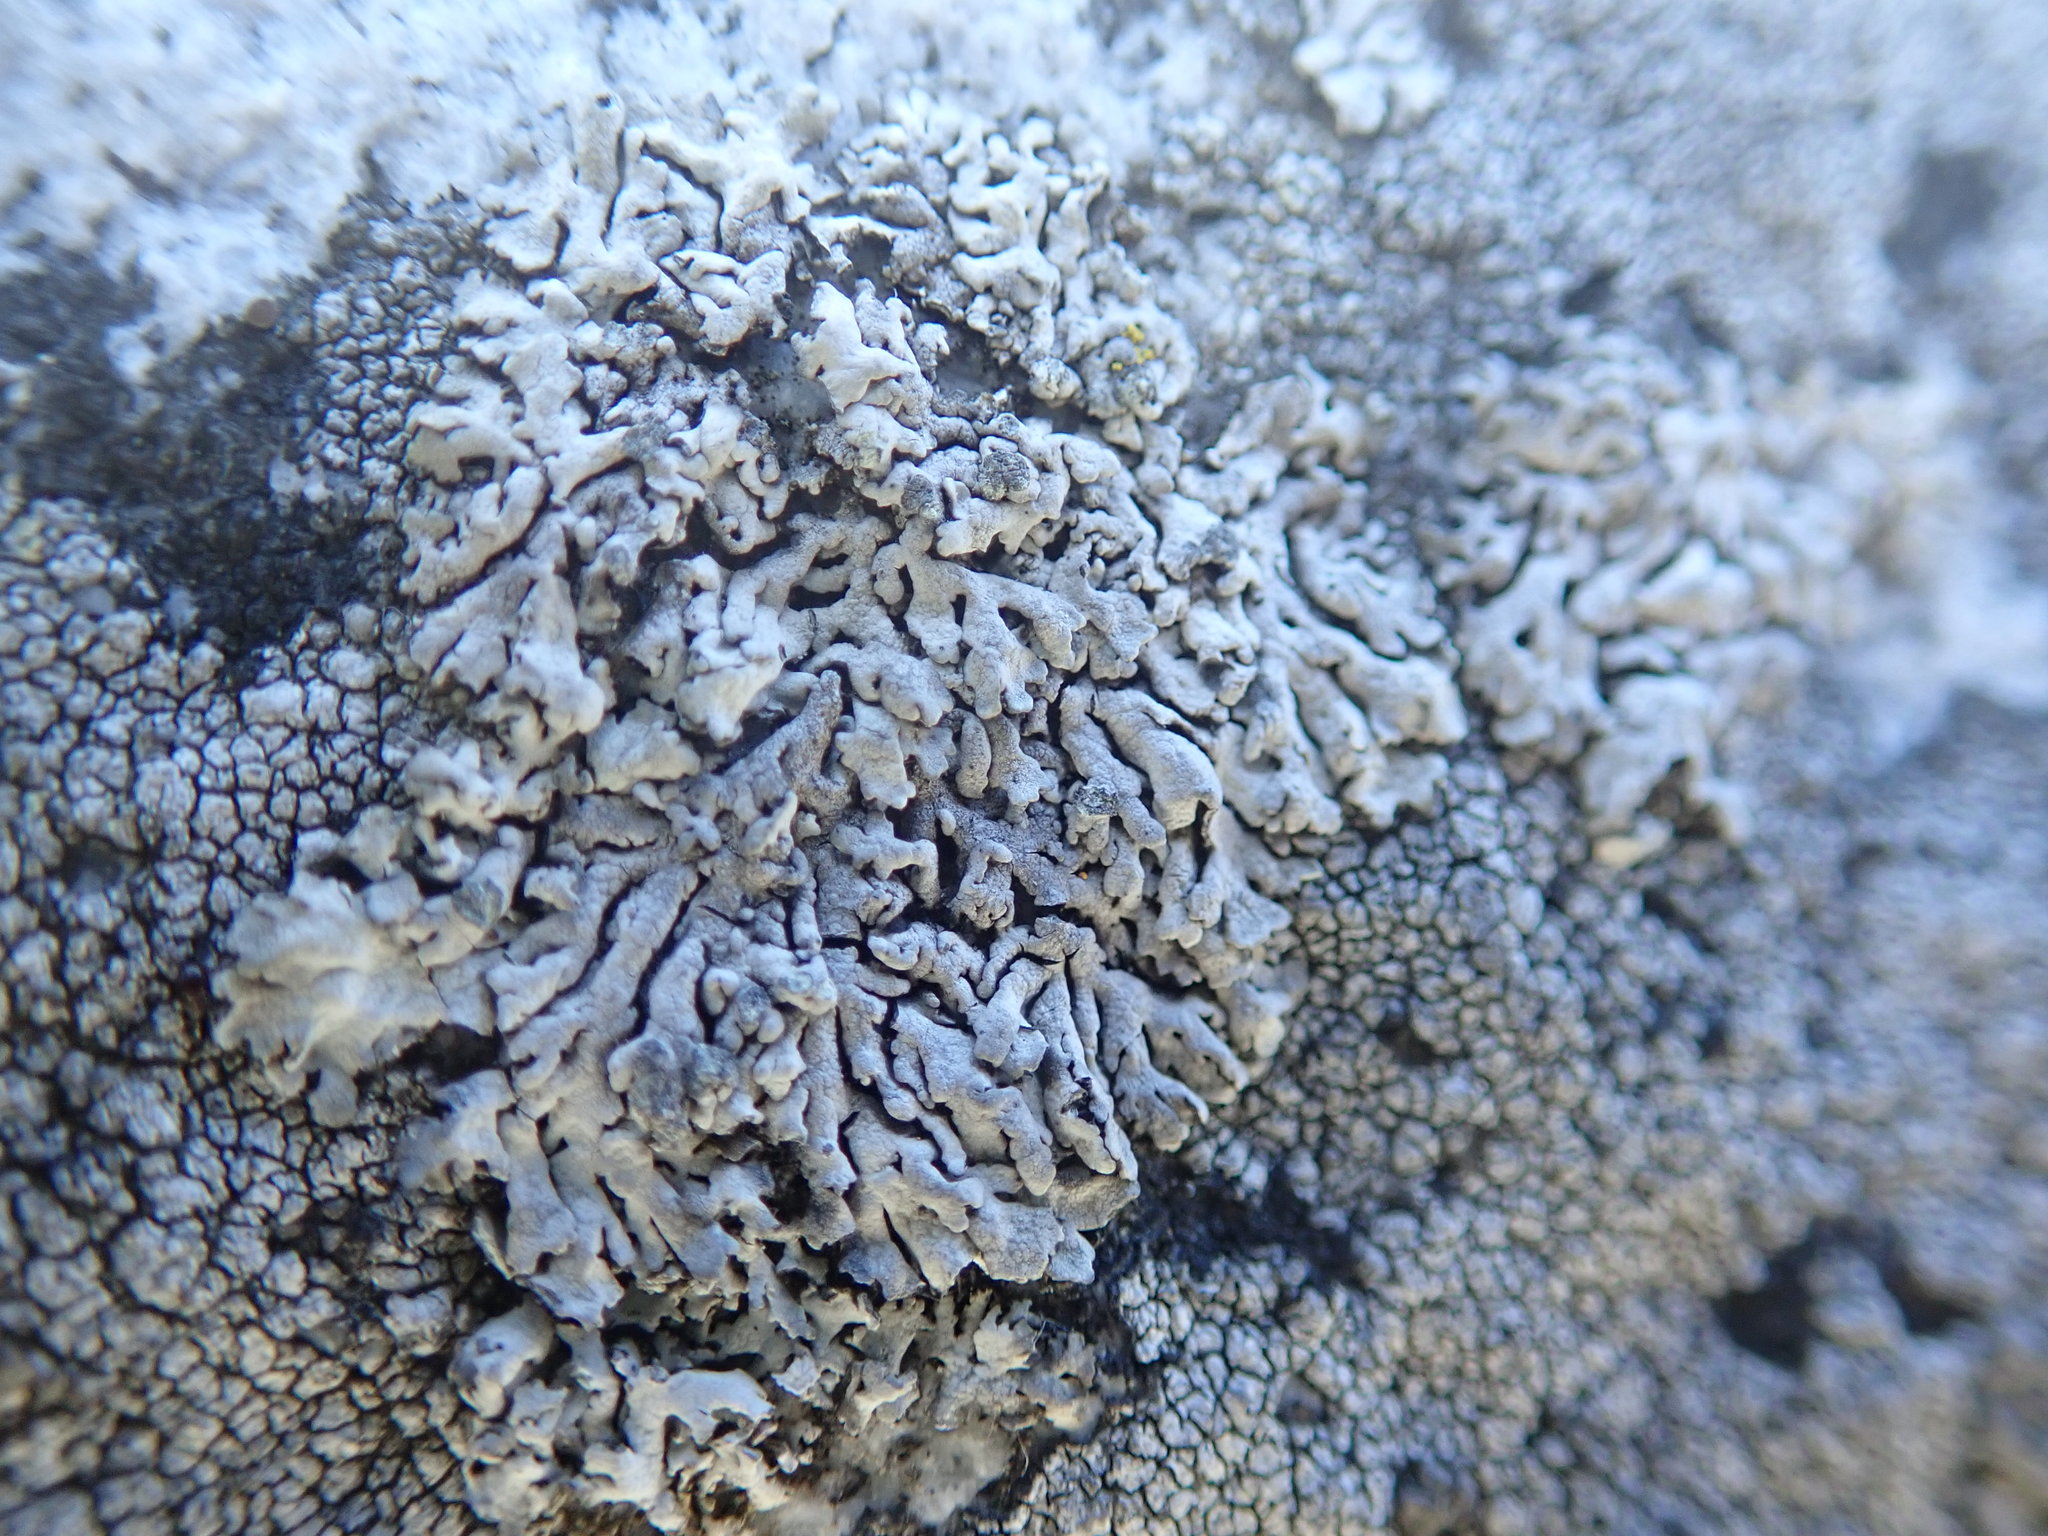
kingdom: Fungi
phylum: Ascomycota
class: Lecanoromycetes
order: Caliciales
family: Physciaceae
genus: Physcia
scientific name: Physcia caesia
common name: Blue-gray rosette lichen
